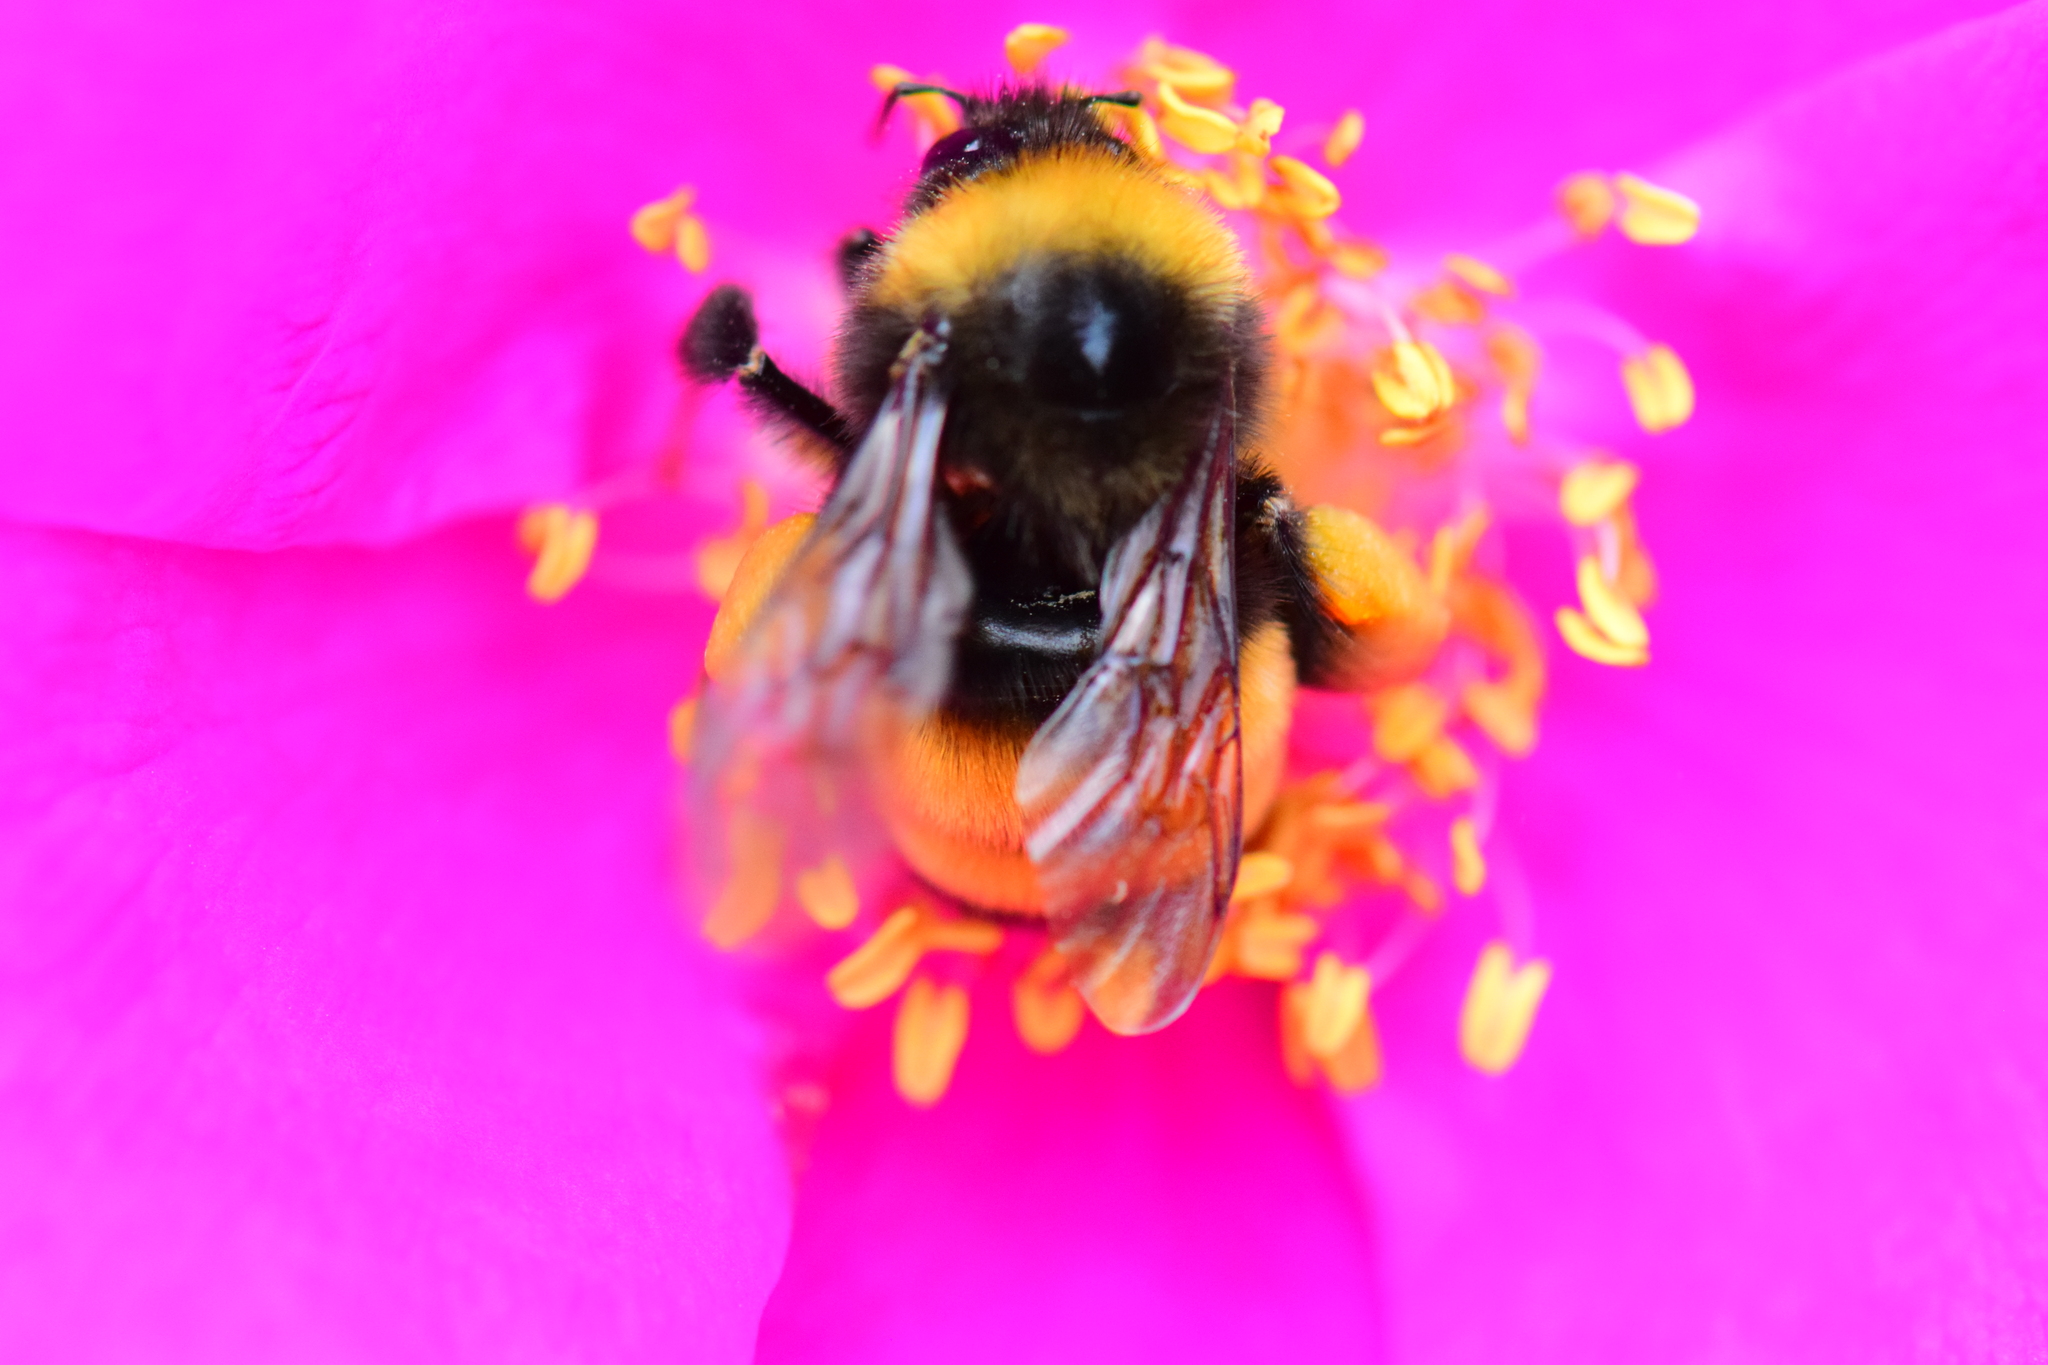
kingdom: Animalia
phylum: Arthropoda
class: Insecta
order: Hymenoptera
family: Apidae
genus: Bombus
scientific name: Bombus terricola
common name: Yellow-banded bumble bee
